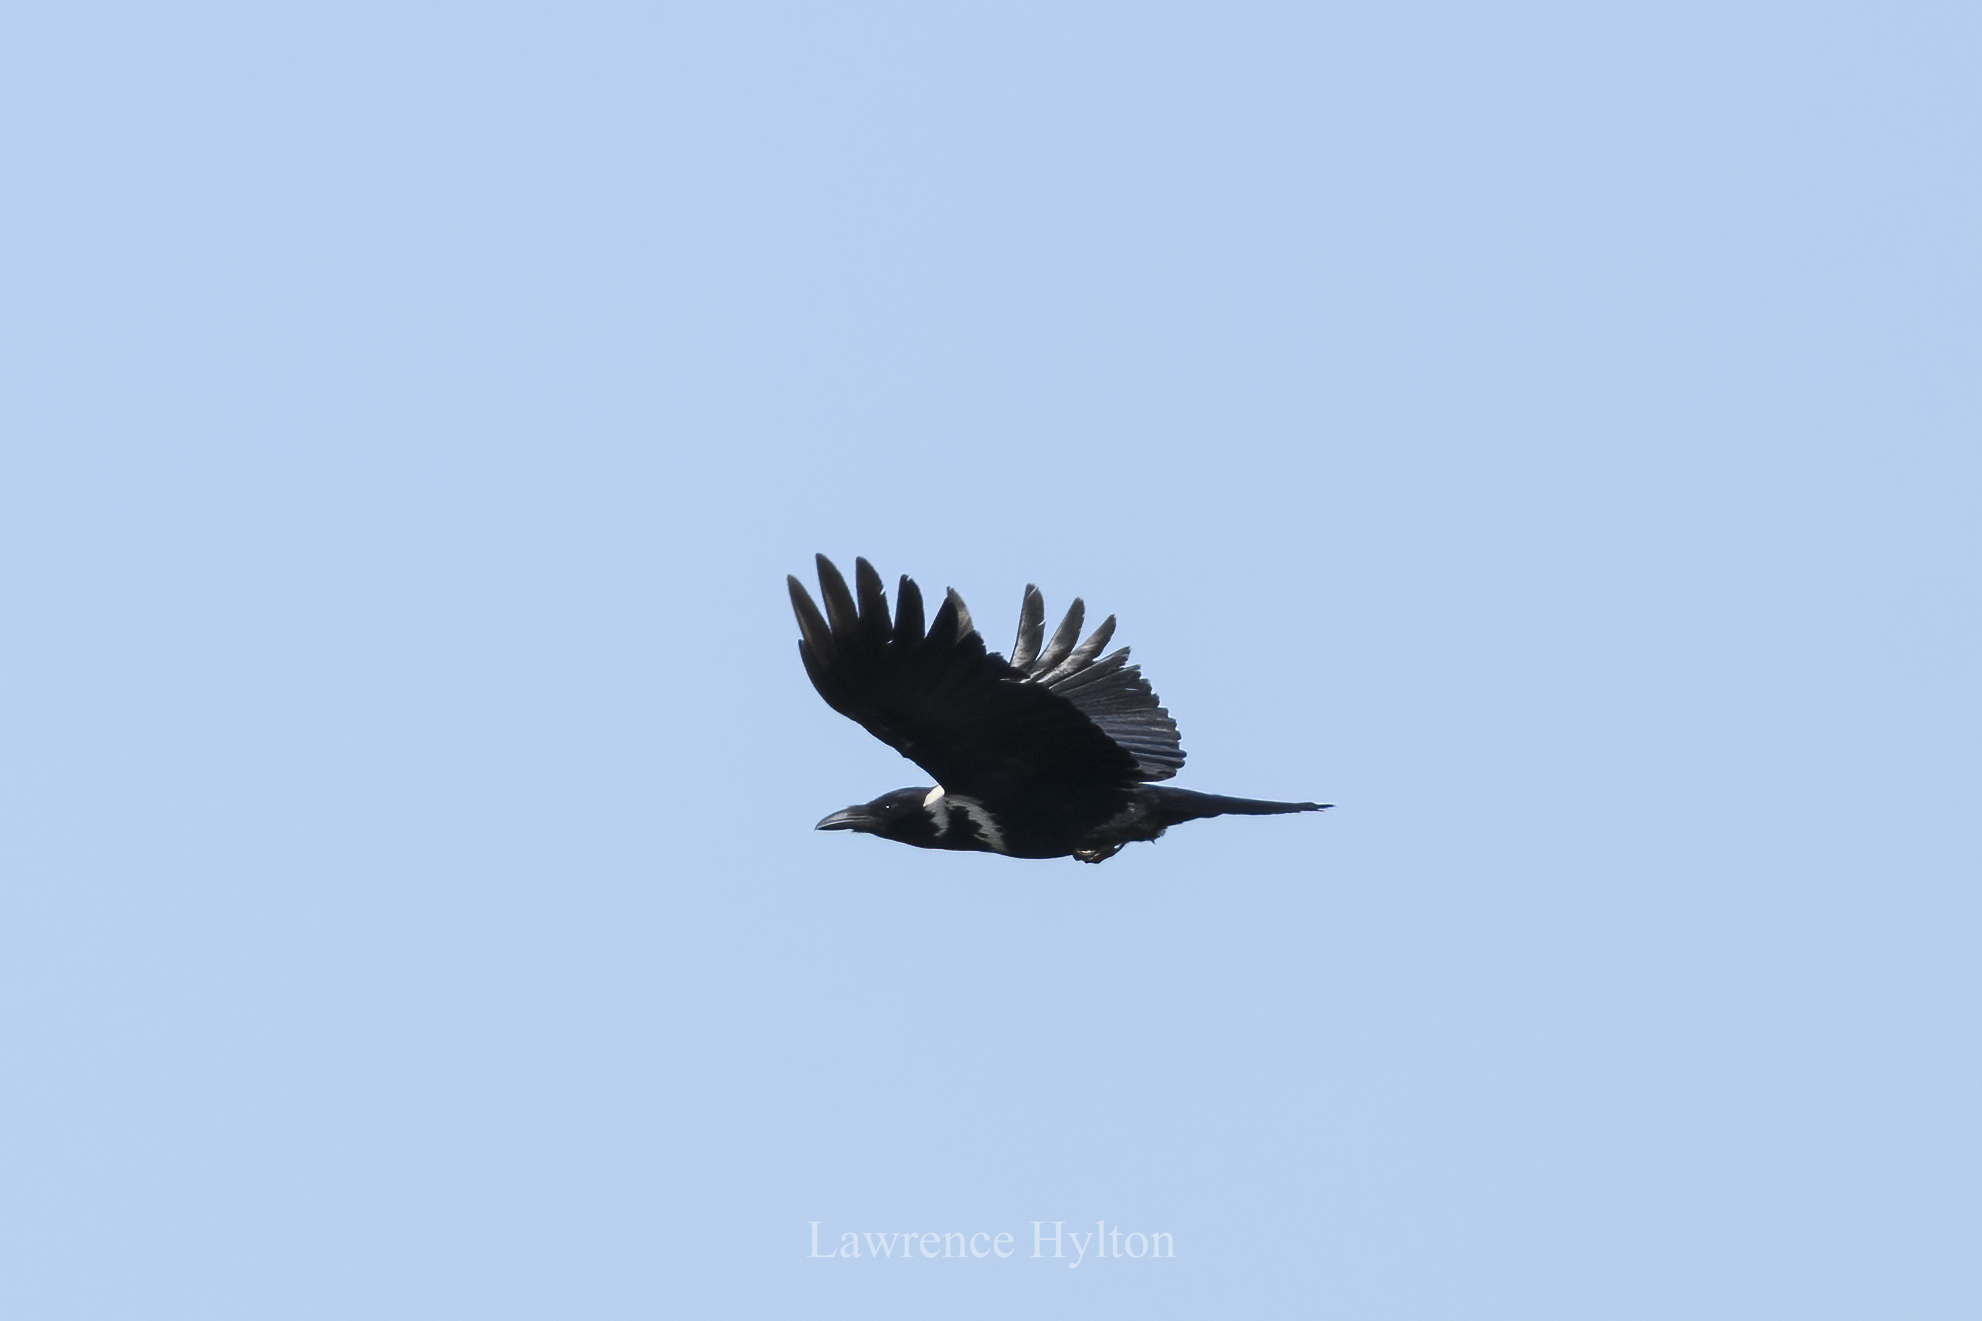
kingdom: Animalia
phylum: Chordata
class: Aves
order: Passeriformes
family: Corvidae
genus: Corvus
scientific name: Corvus pectoralis
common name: Collared crow
